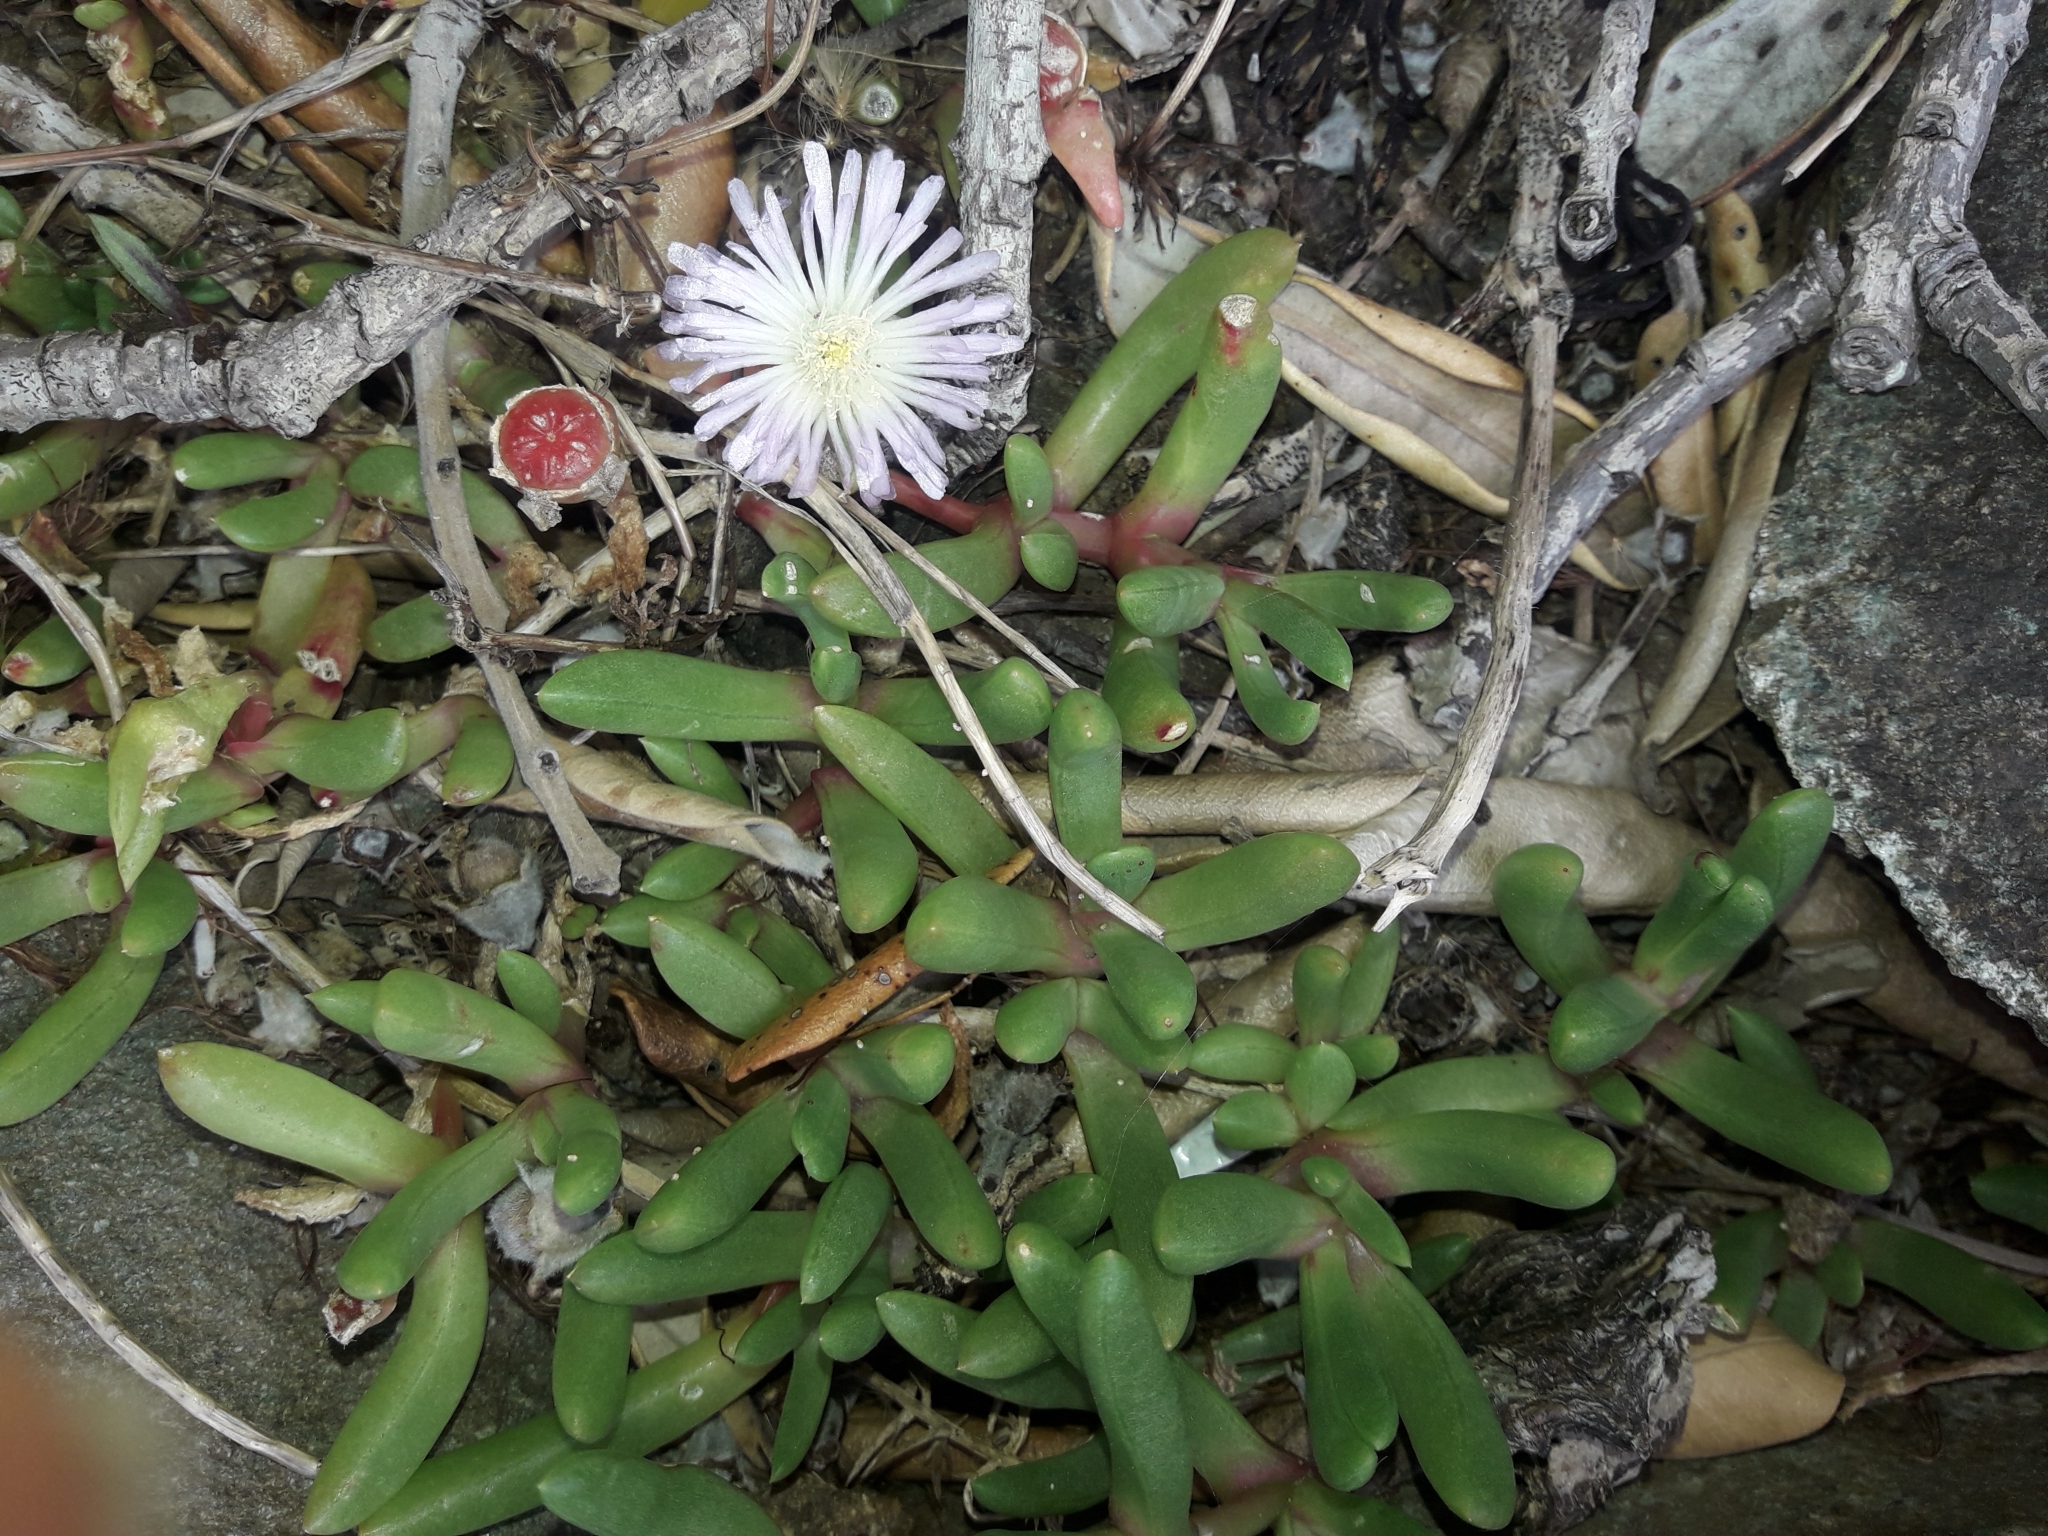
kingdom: Plantae
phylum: Tracheophyta
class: Magnoliopsida
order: Caryophyllales
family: Aizoaceae
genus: Disphyma
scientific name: Disphyma australe
